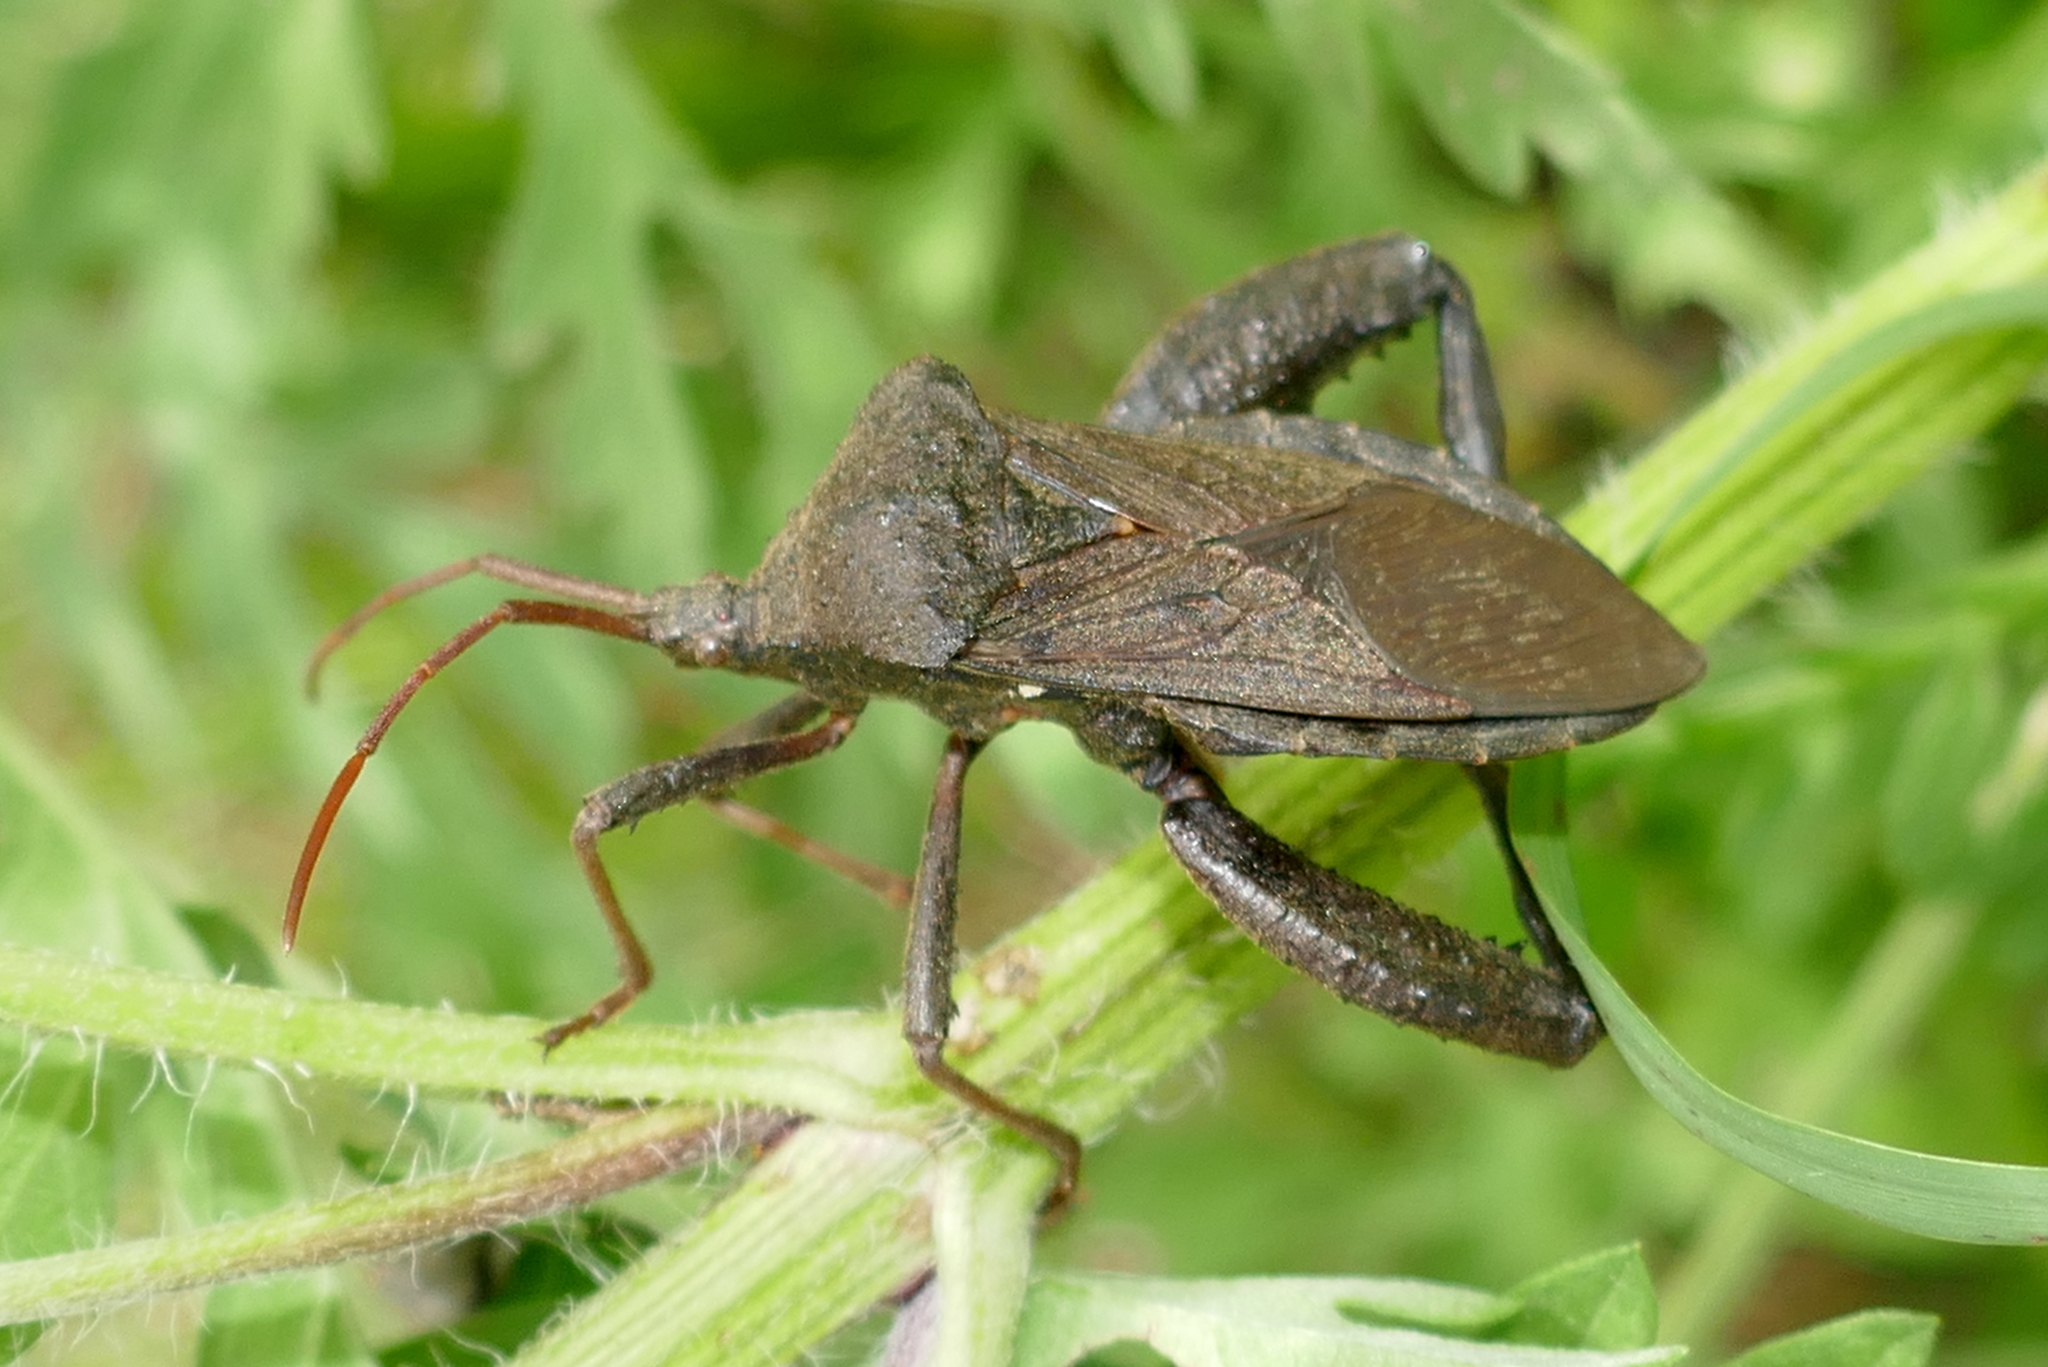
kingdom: Animalia
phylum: Arthropoda
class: Insecta
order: Hemiptera
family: Coreidae
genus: Acanthocephala
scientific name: Acanthocephala femorata
